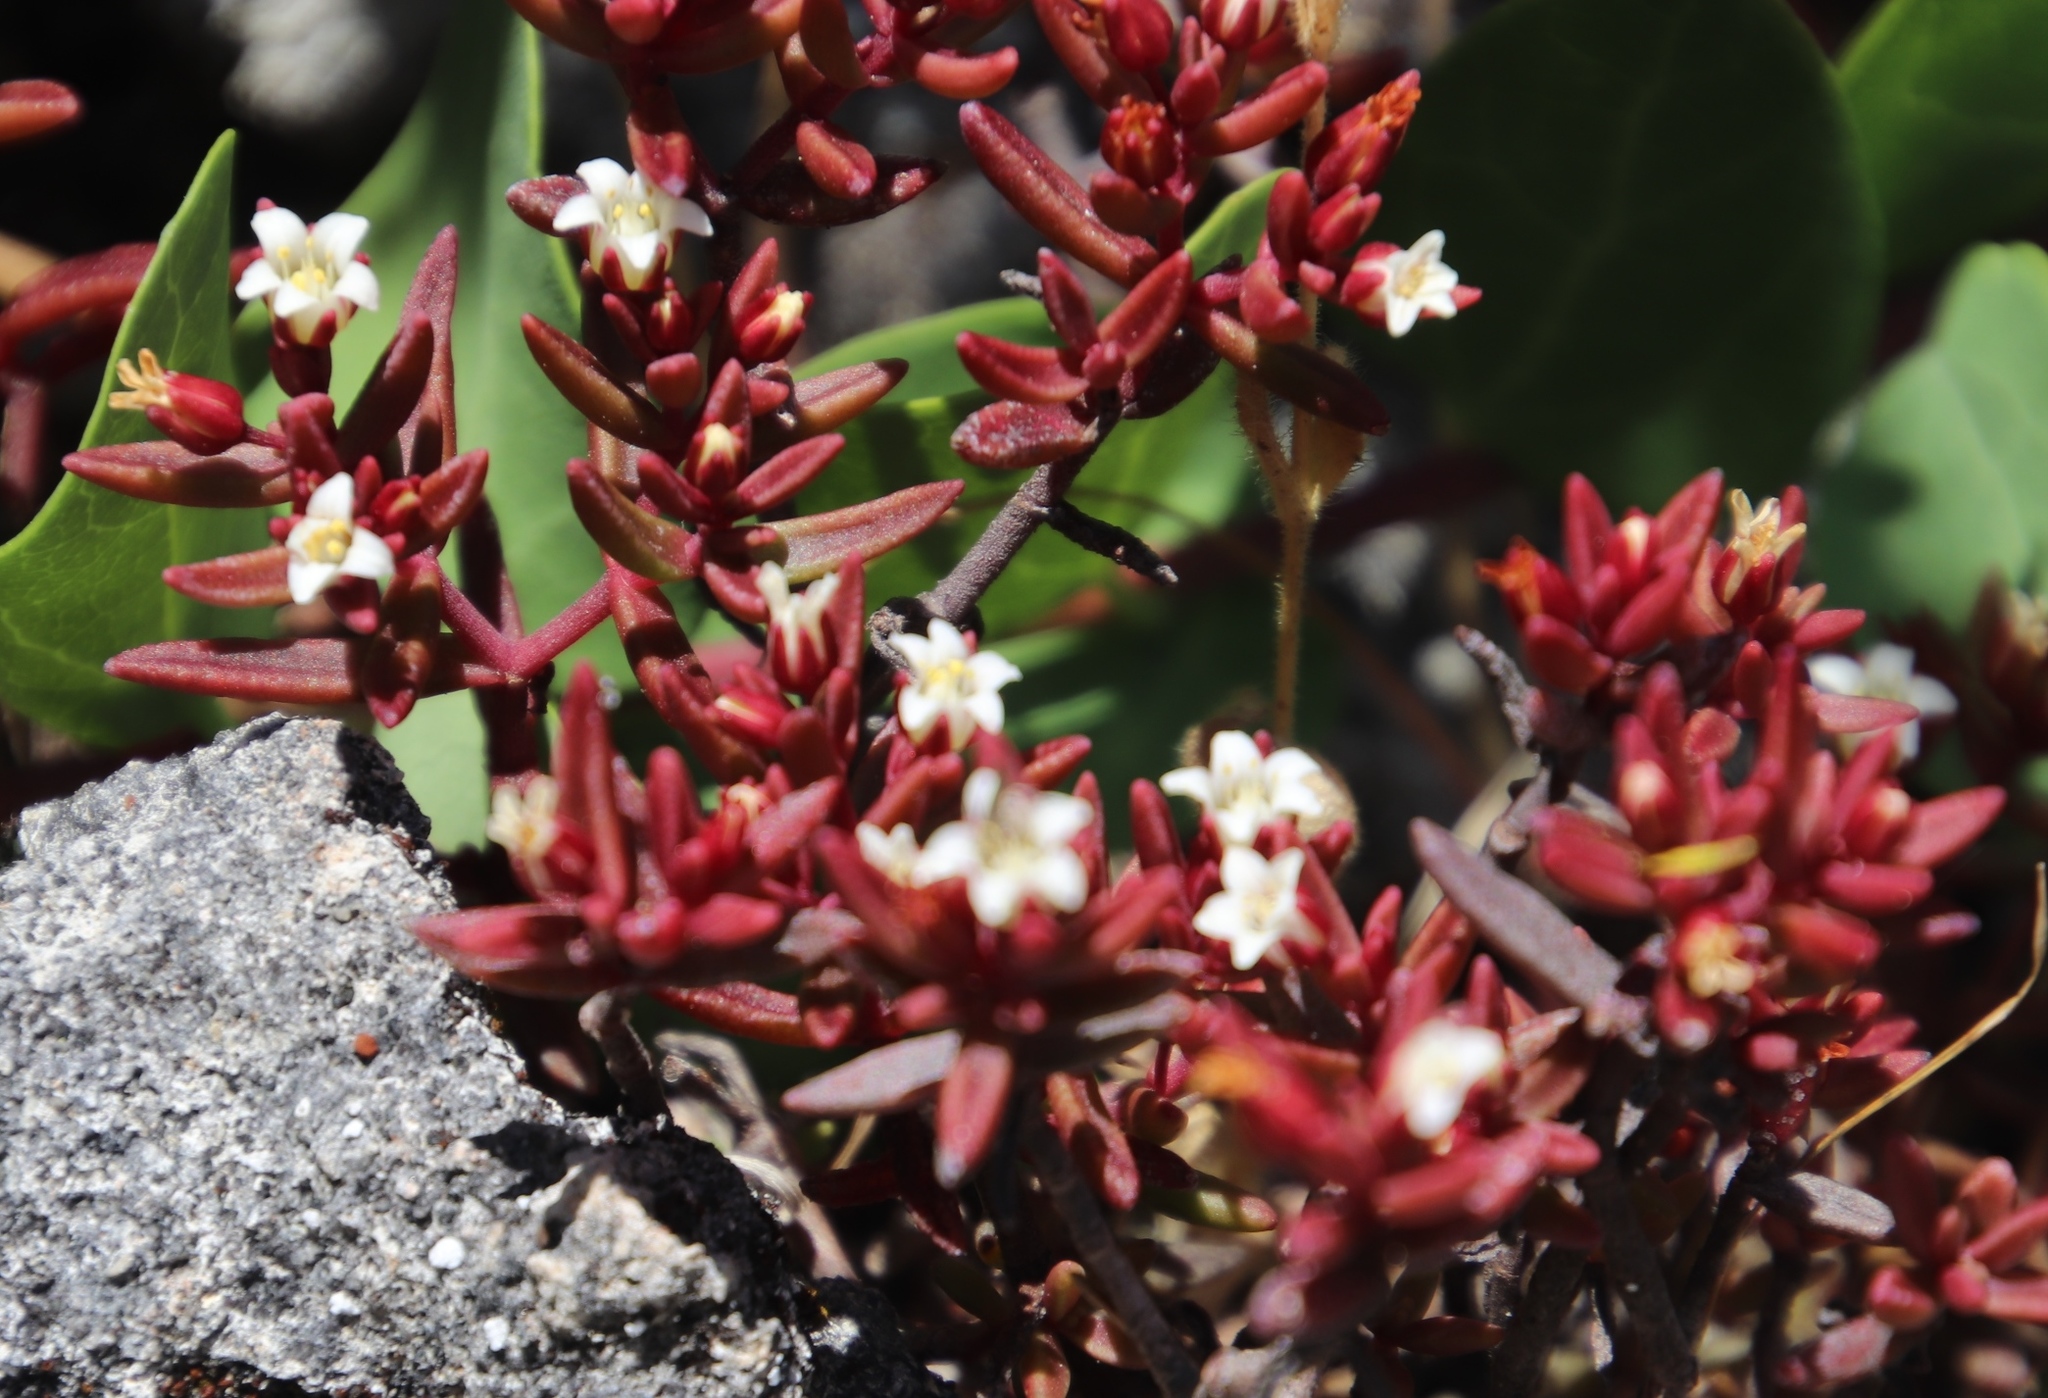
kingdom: Plantae
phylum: Tracheophyta
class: Magnoliopsida
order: Saxifragales
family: Crassulaceae
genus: Crassula
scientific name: Crassula expansa
